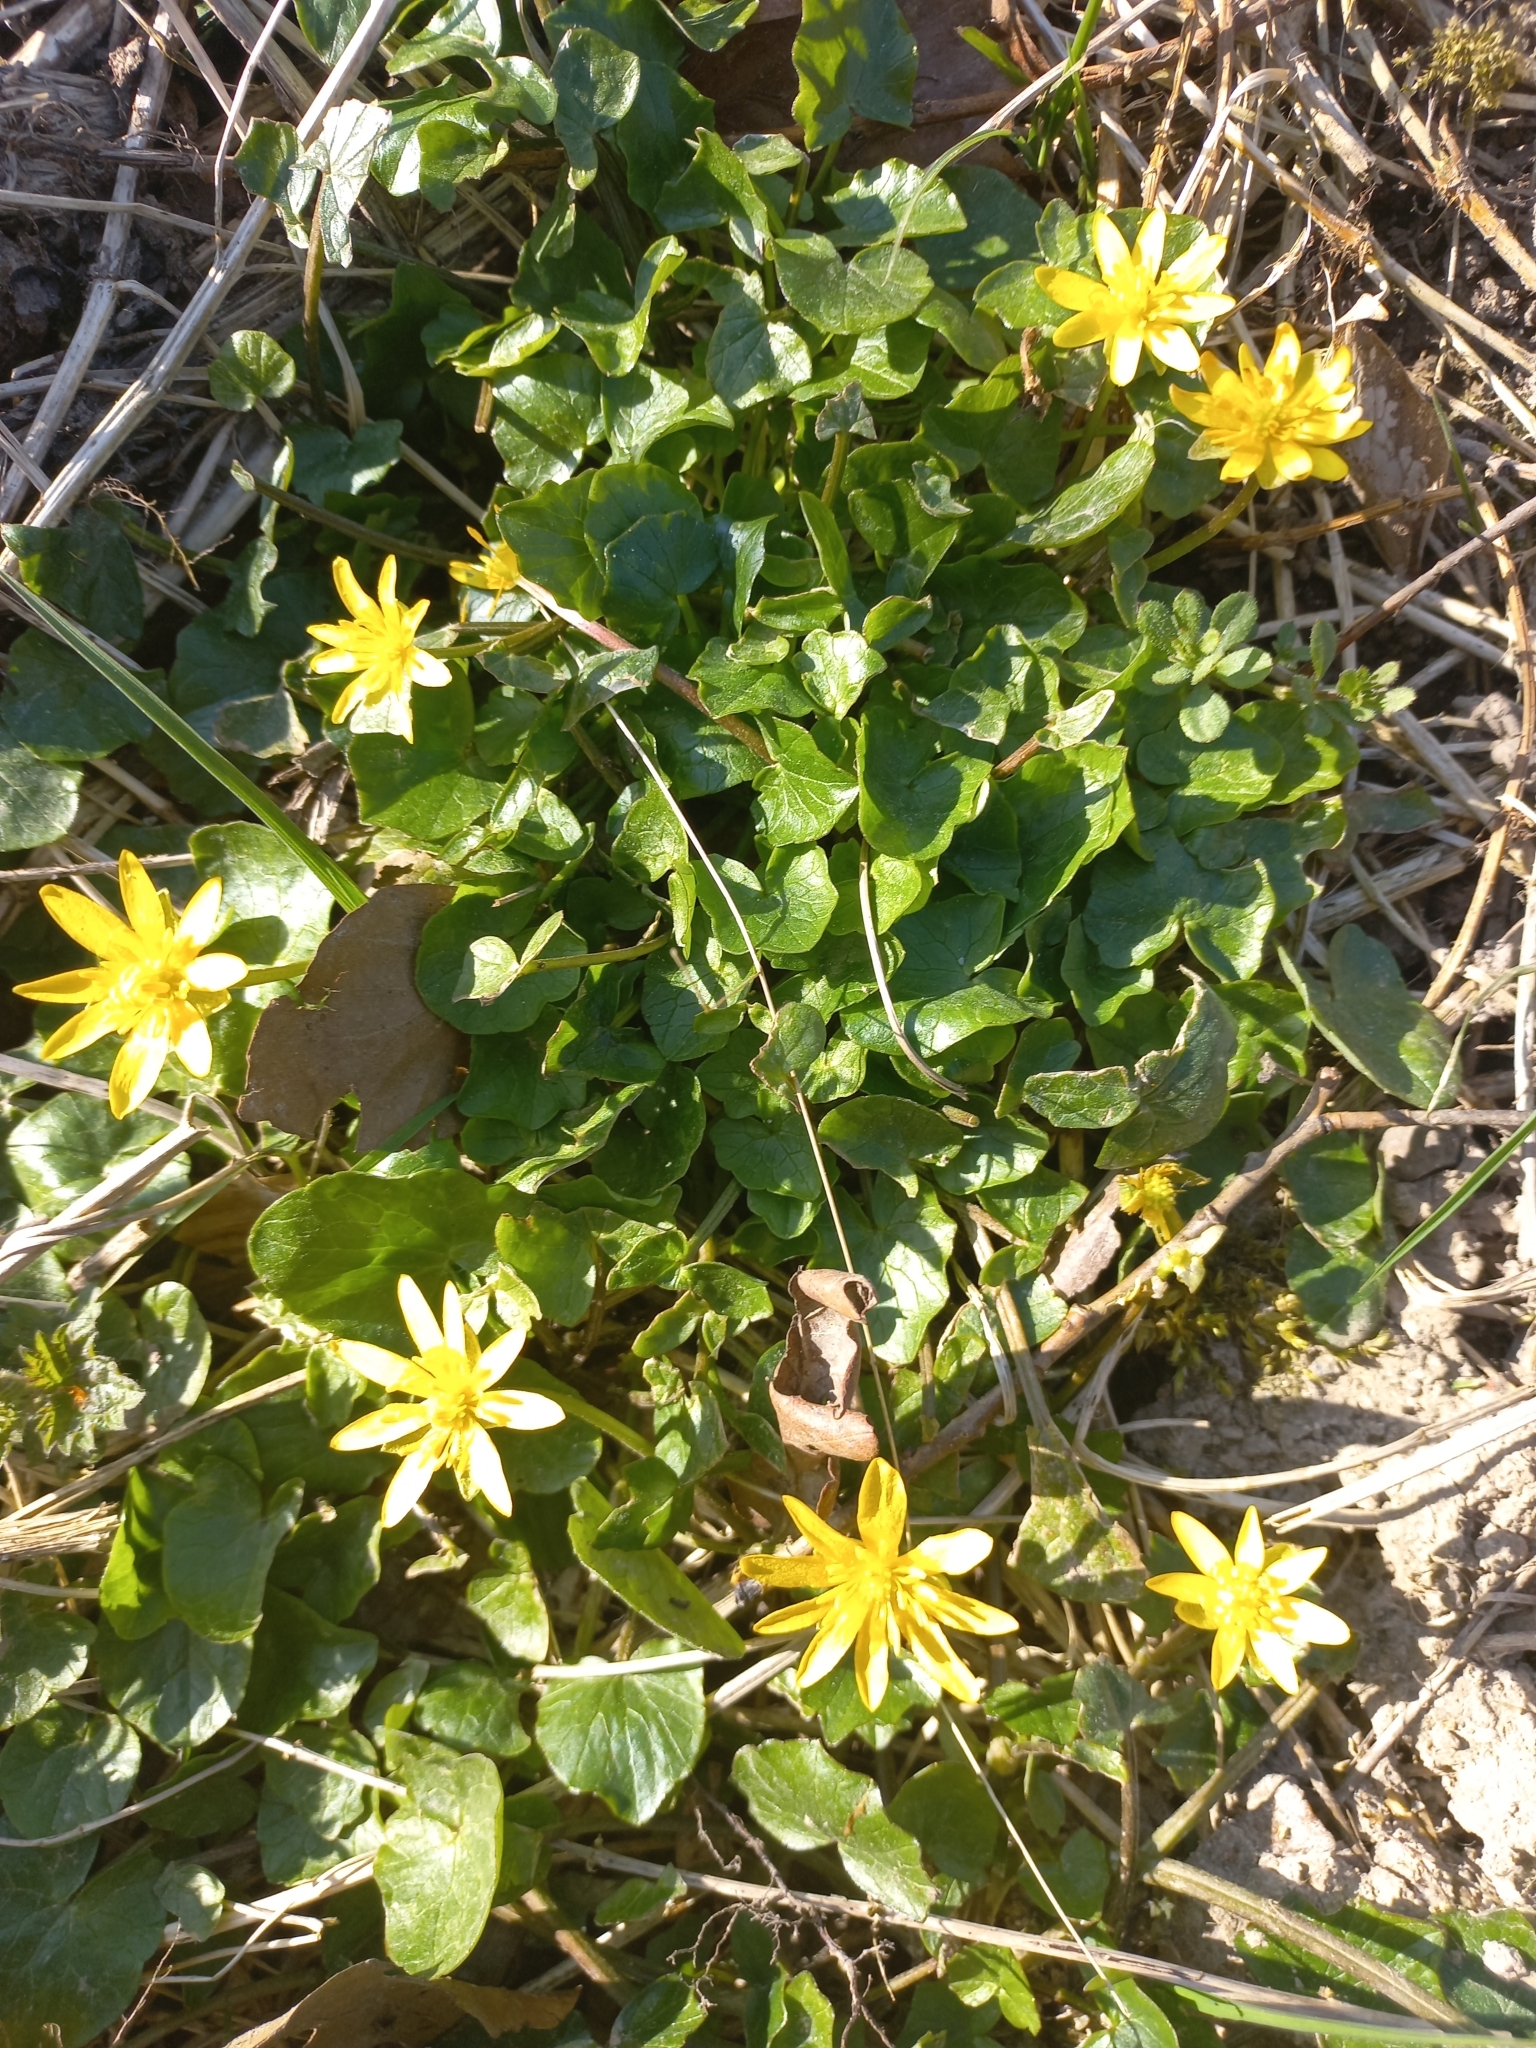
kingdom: Plantae
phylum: Tracheophyta
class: Magnoliopsida
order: Ranunculales
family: Ranunculaceae
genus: Ficaria
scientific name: Ficaria verna
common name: Lesser celandine
